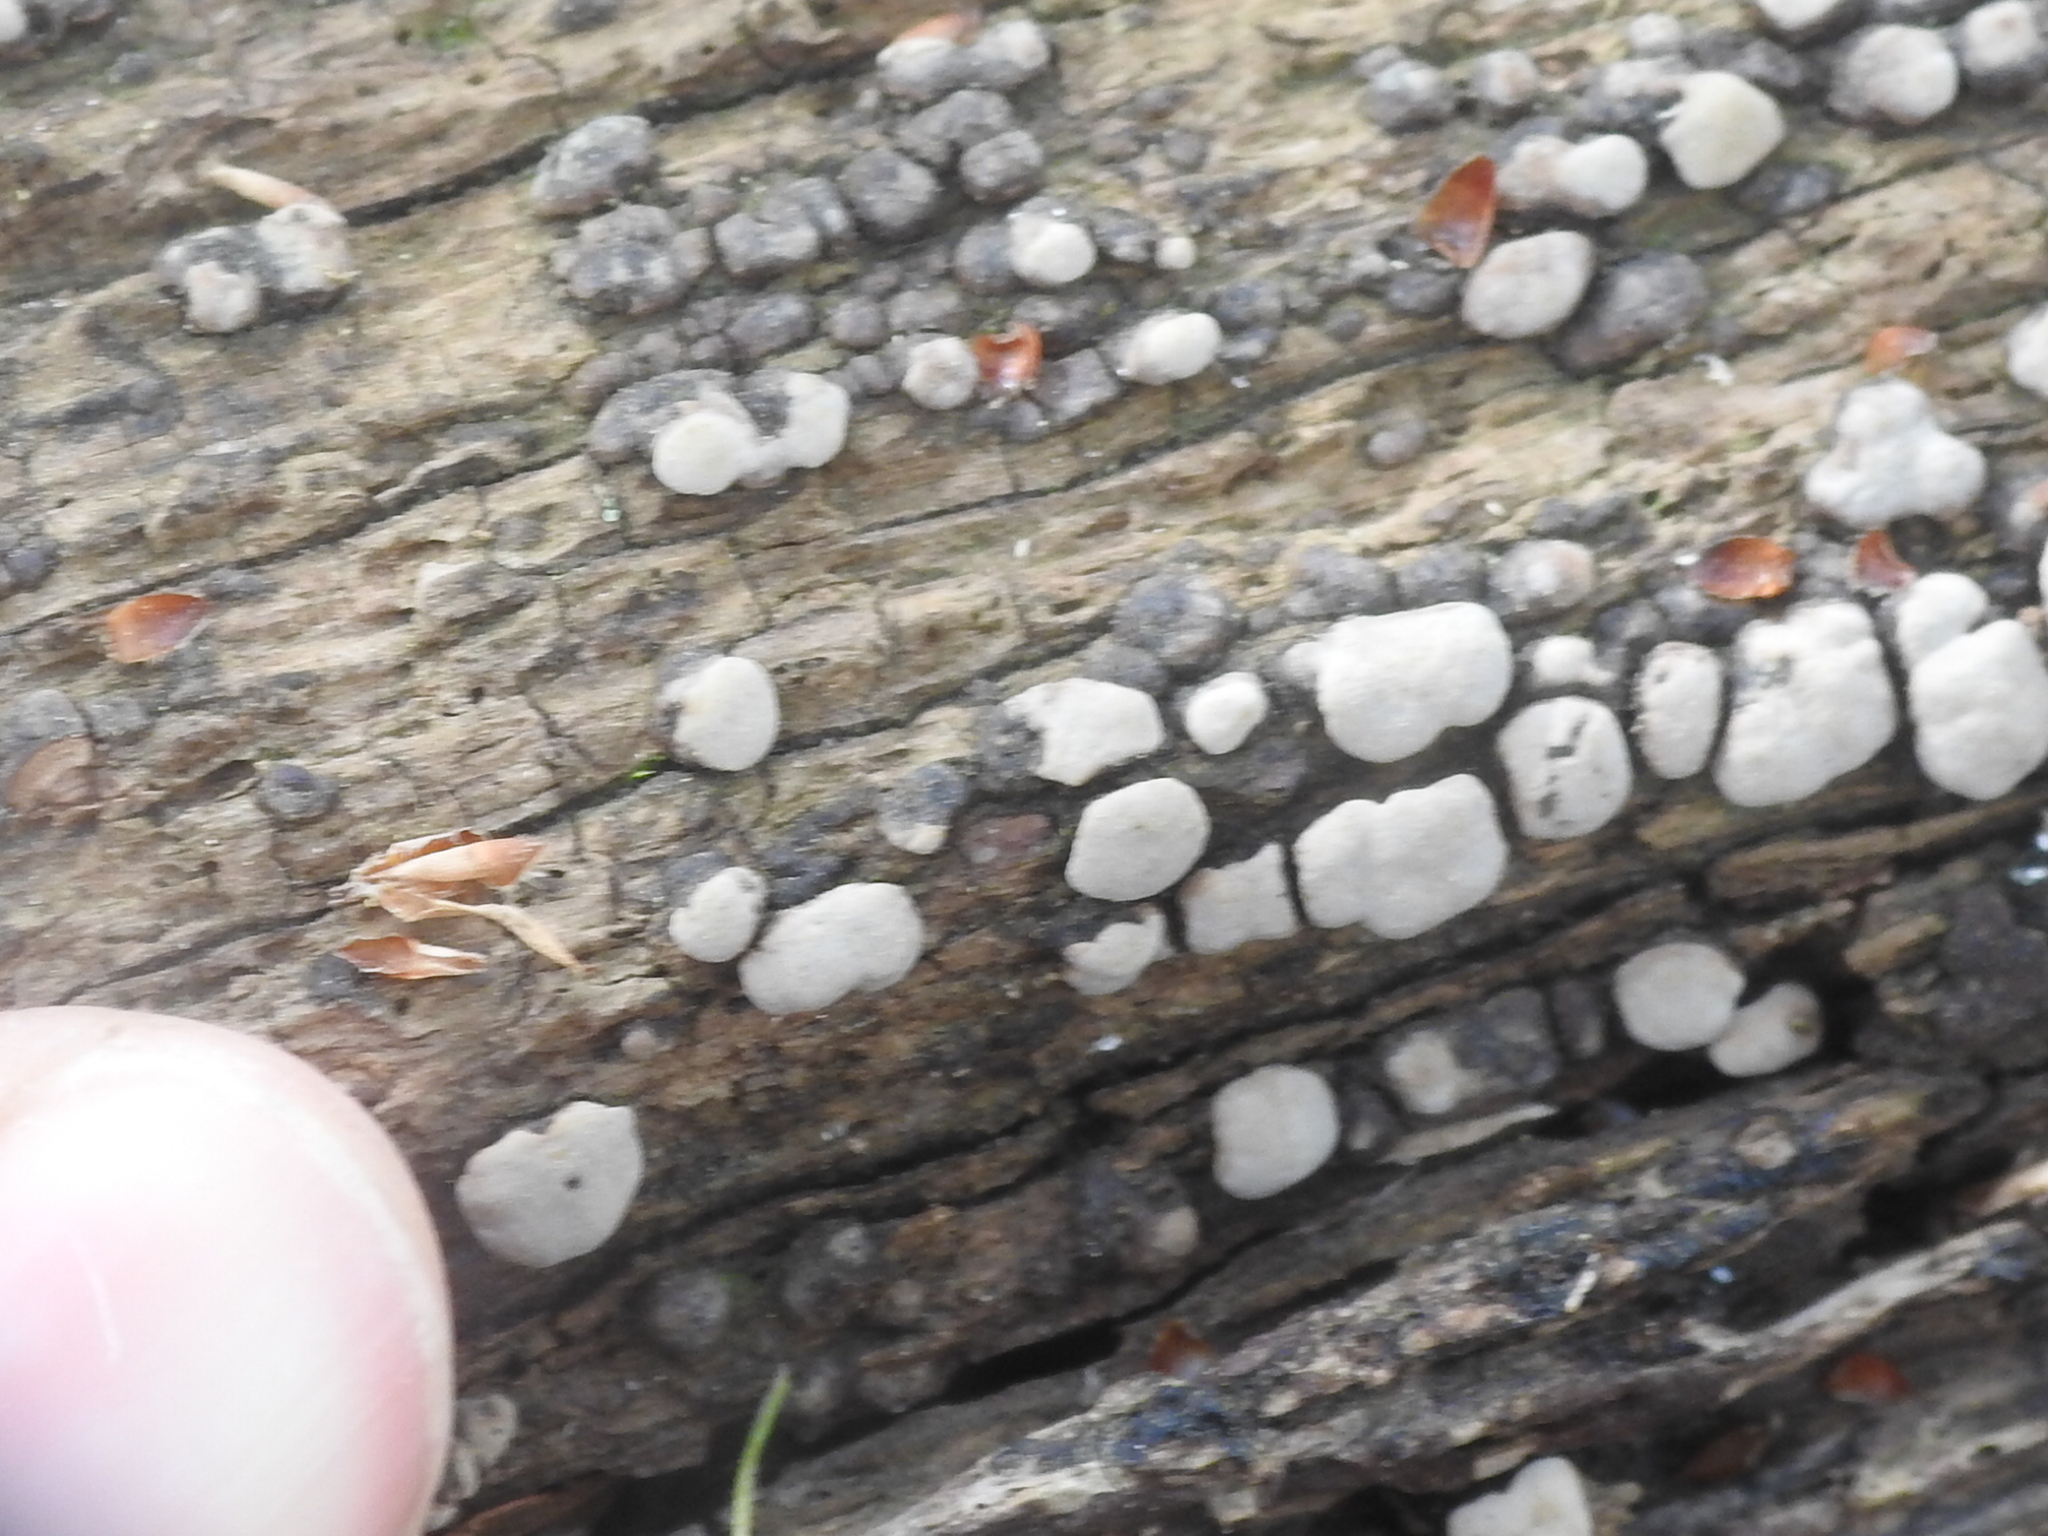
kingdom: Fungi
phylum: Basidiomycota
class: Agaricomycetes
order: Russulales
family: Stereaceae
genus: Xylobolus
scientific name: Xylobolus frustulatus
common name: Ceramic parchment
